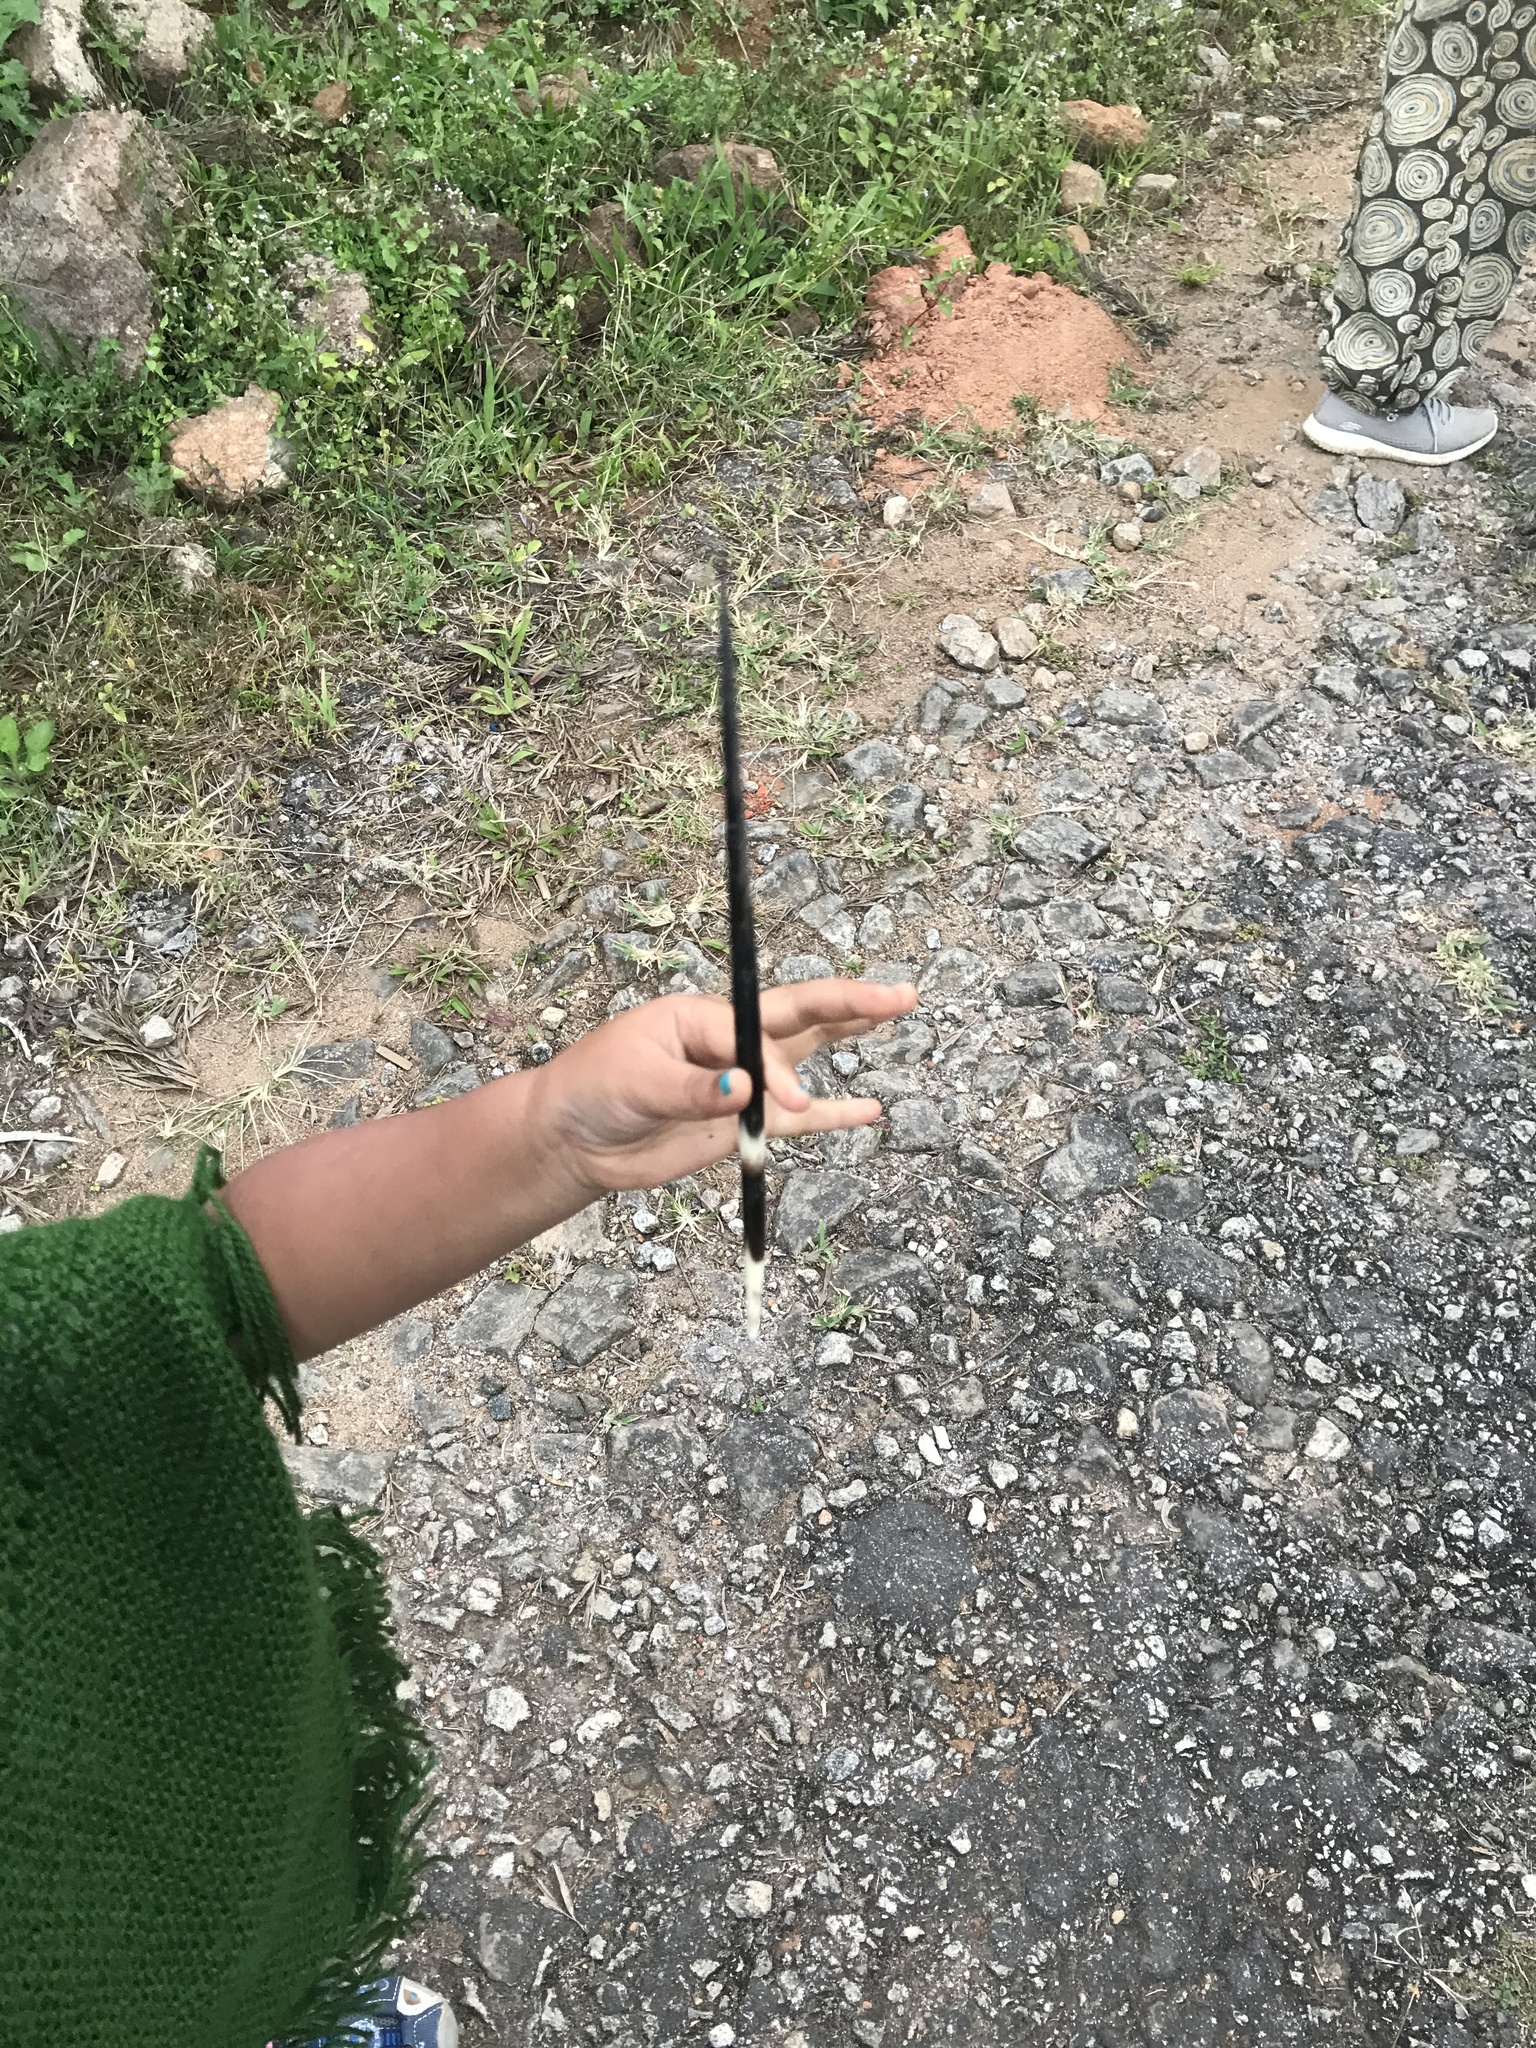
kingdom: Animalia
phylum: Chordata
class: Mammalia
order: Rodentia
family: Hystricidae
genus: Hystrix
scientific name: Hystrix indica
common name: Indian crested porcupine
